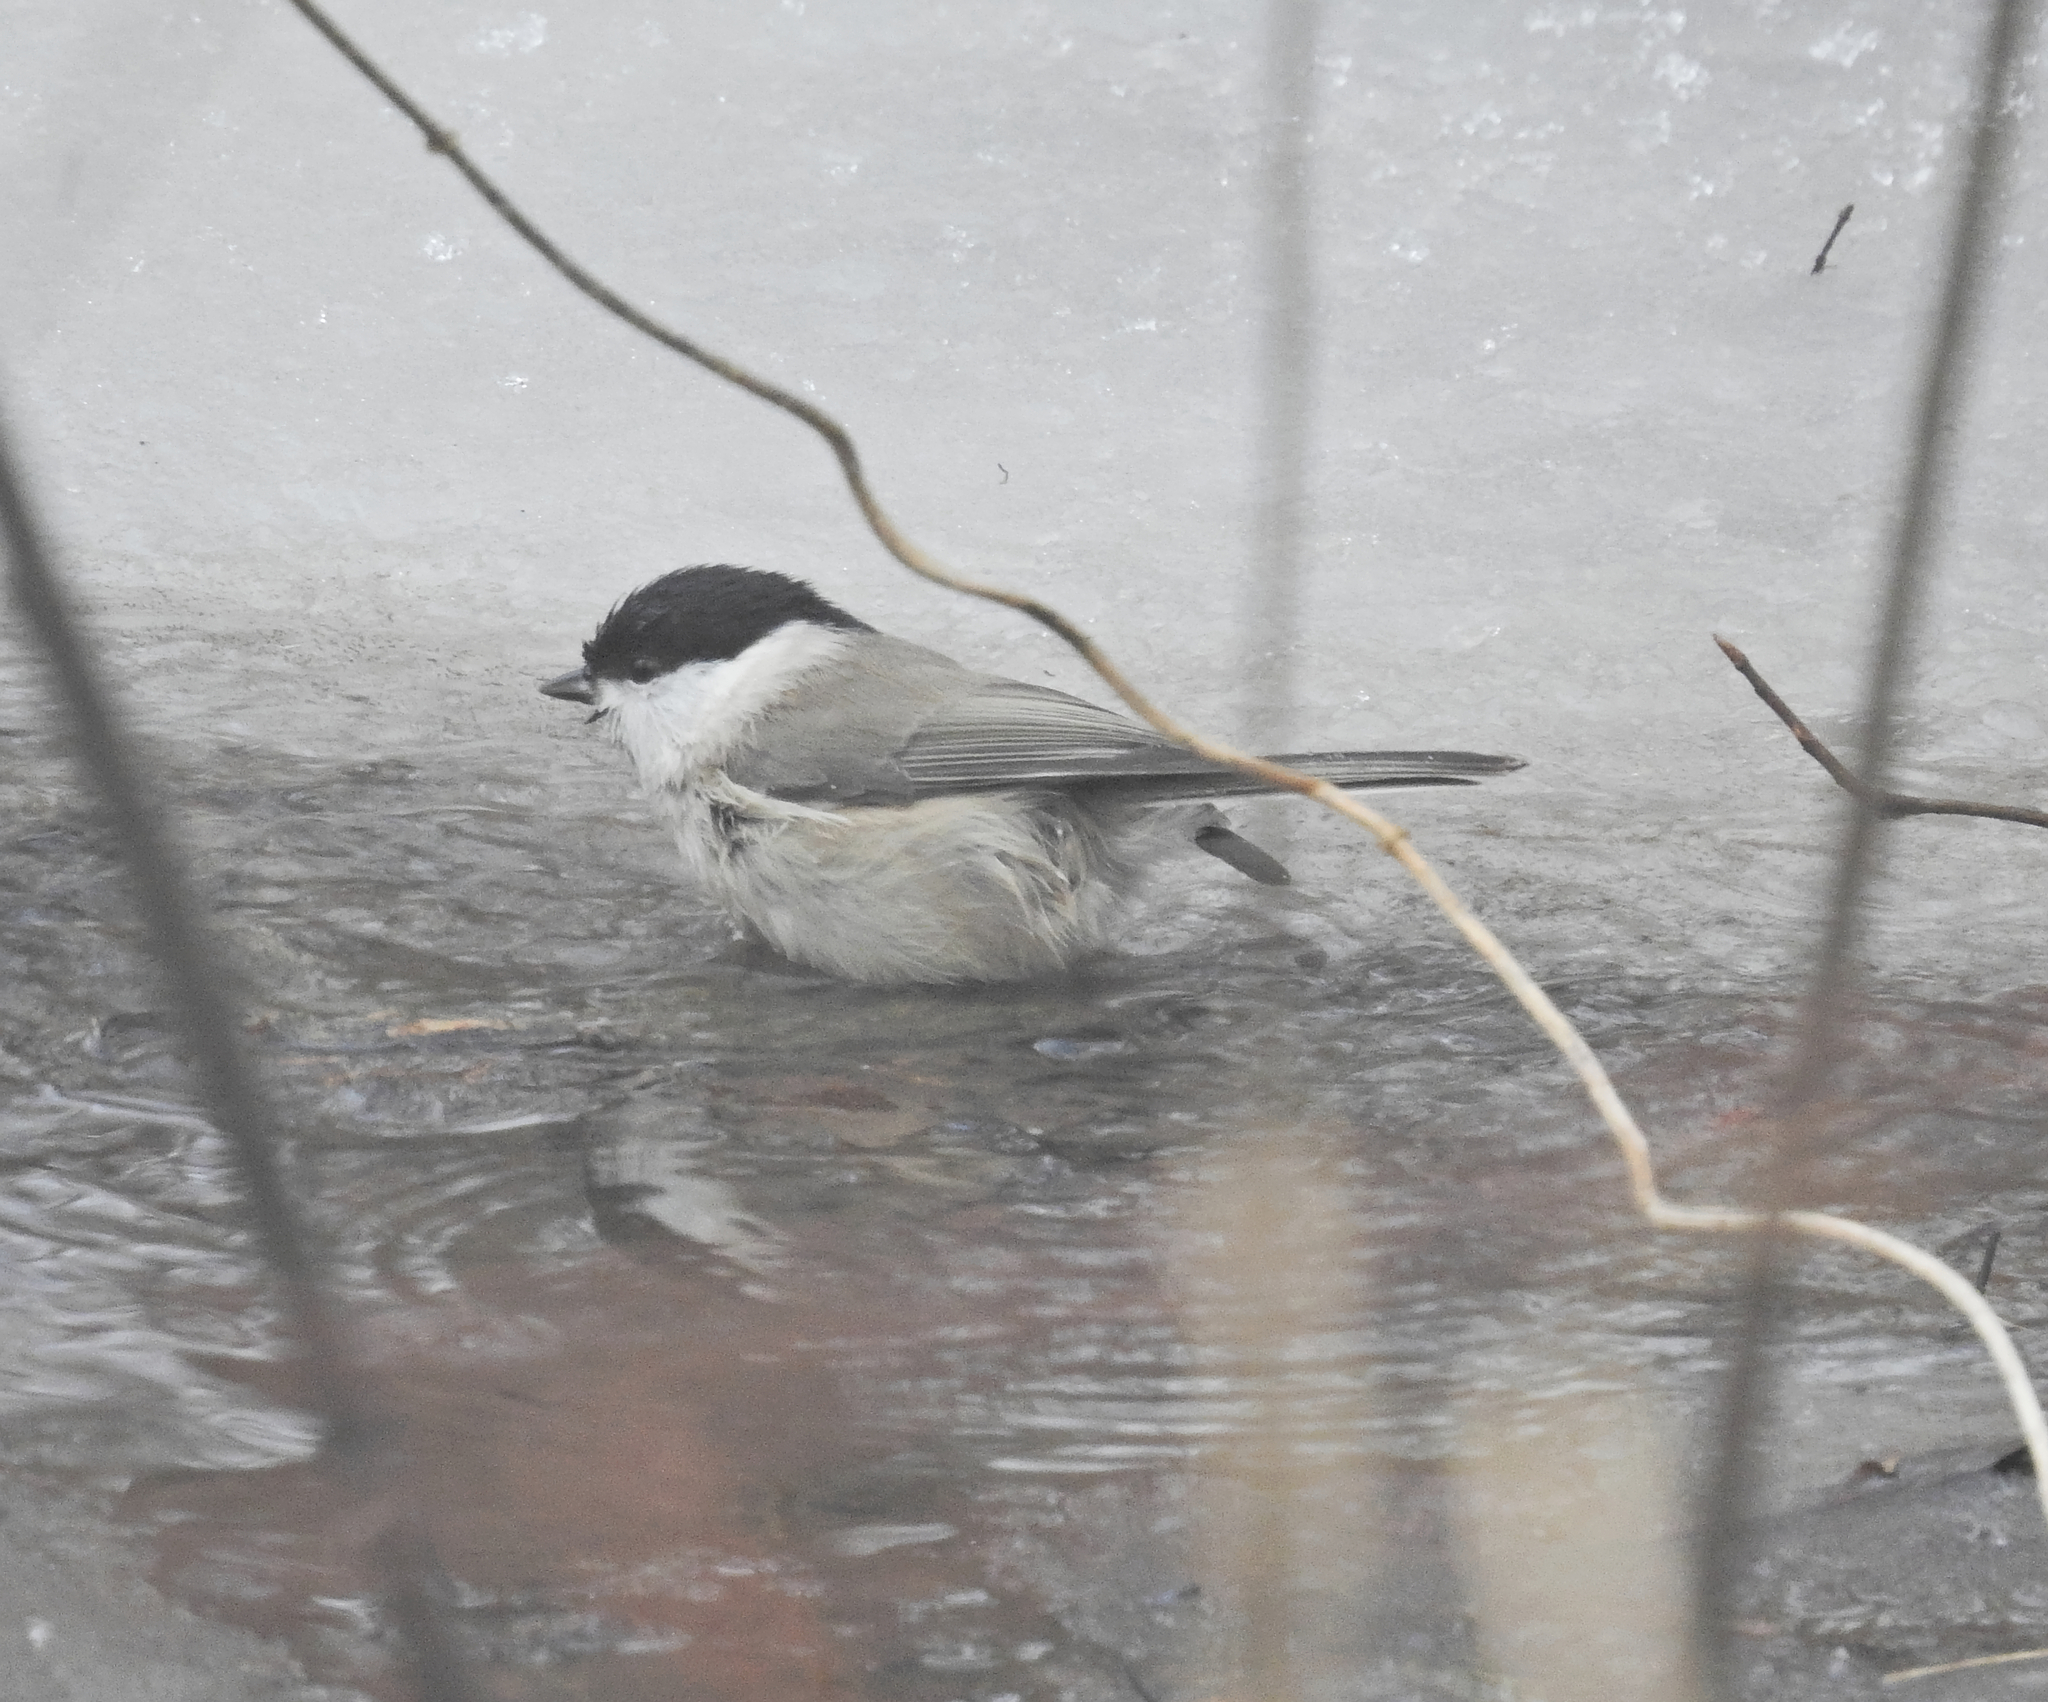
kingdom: Animalia
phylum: Chordata
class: Aves
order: Passeriformes
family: Paridae
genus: Poecile
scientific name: Poecile palustris
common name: Marsh tit
